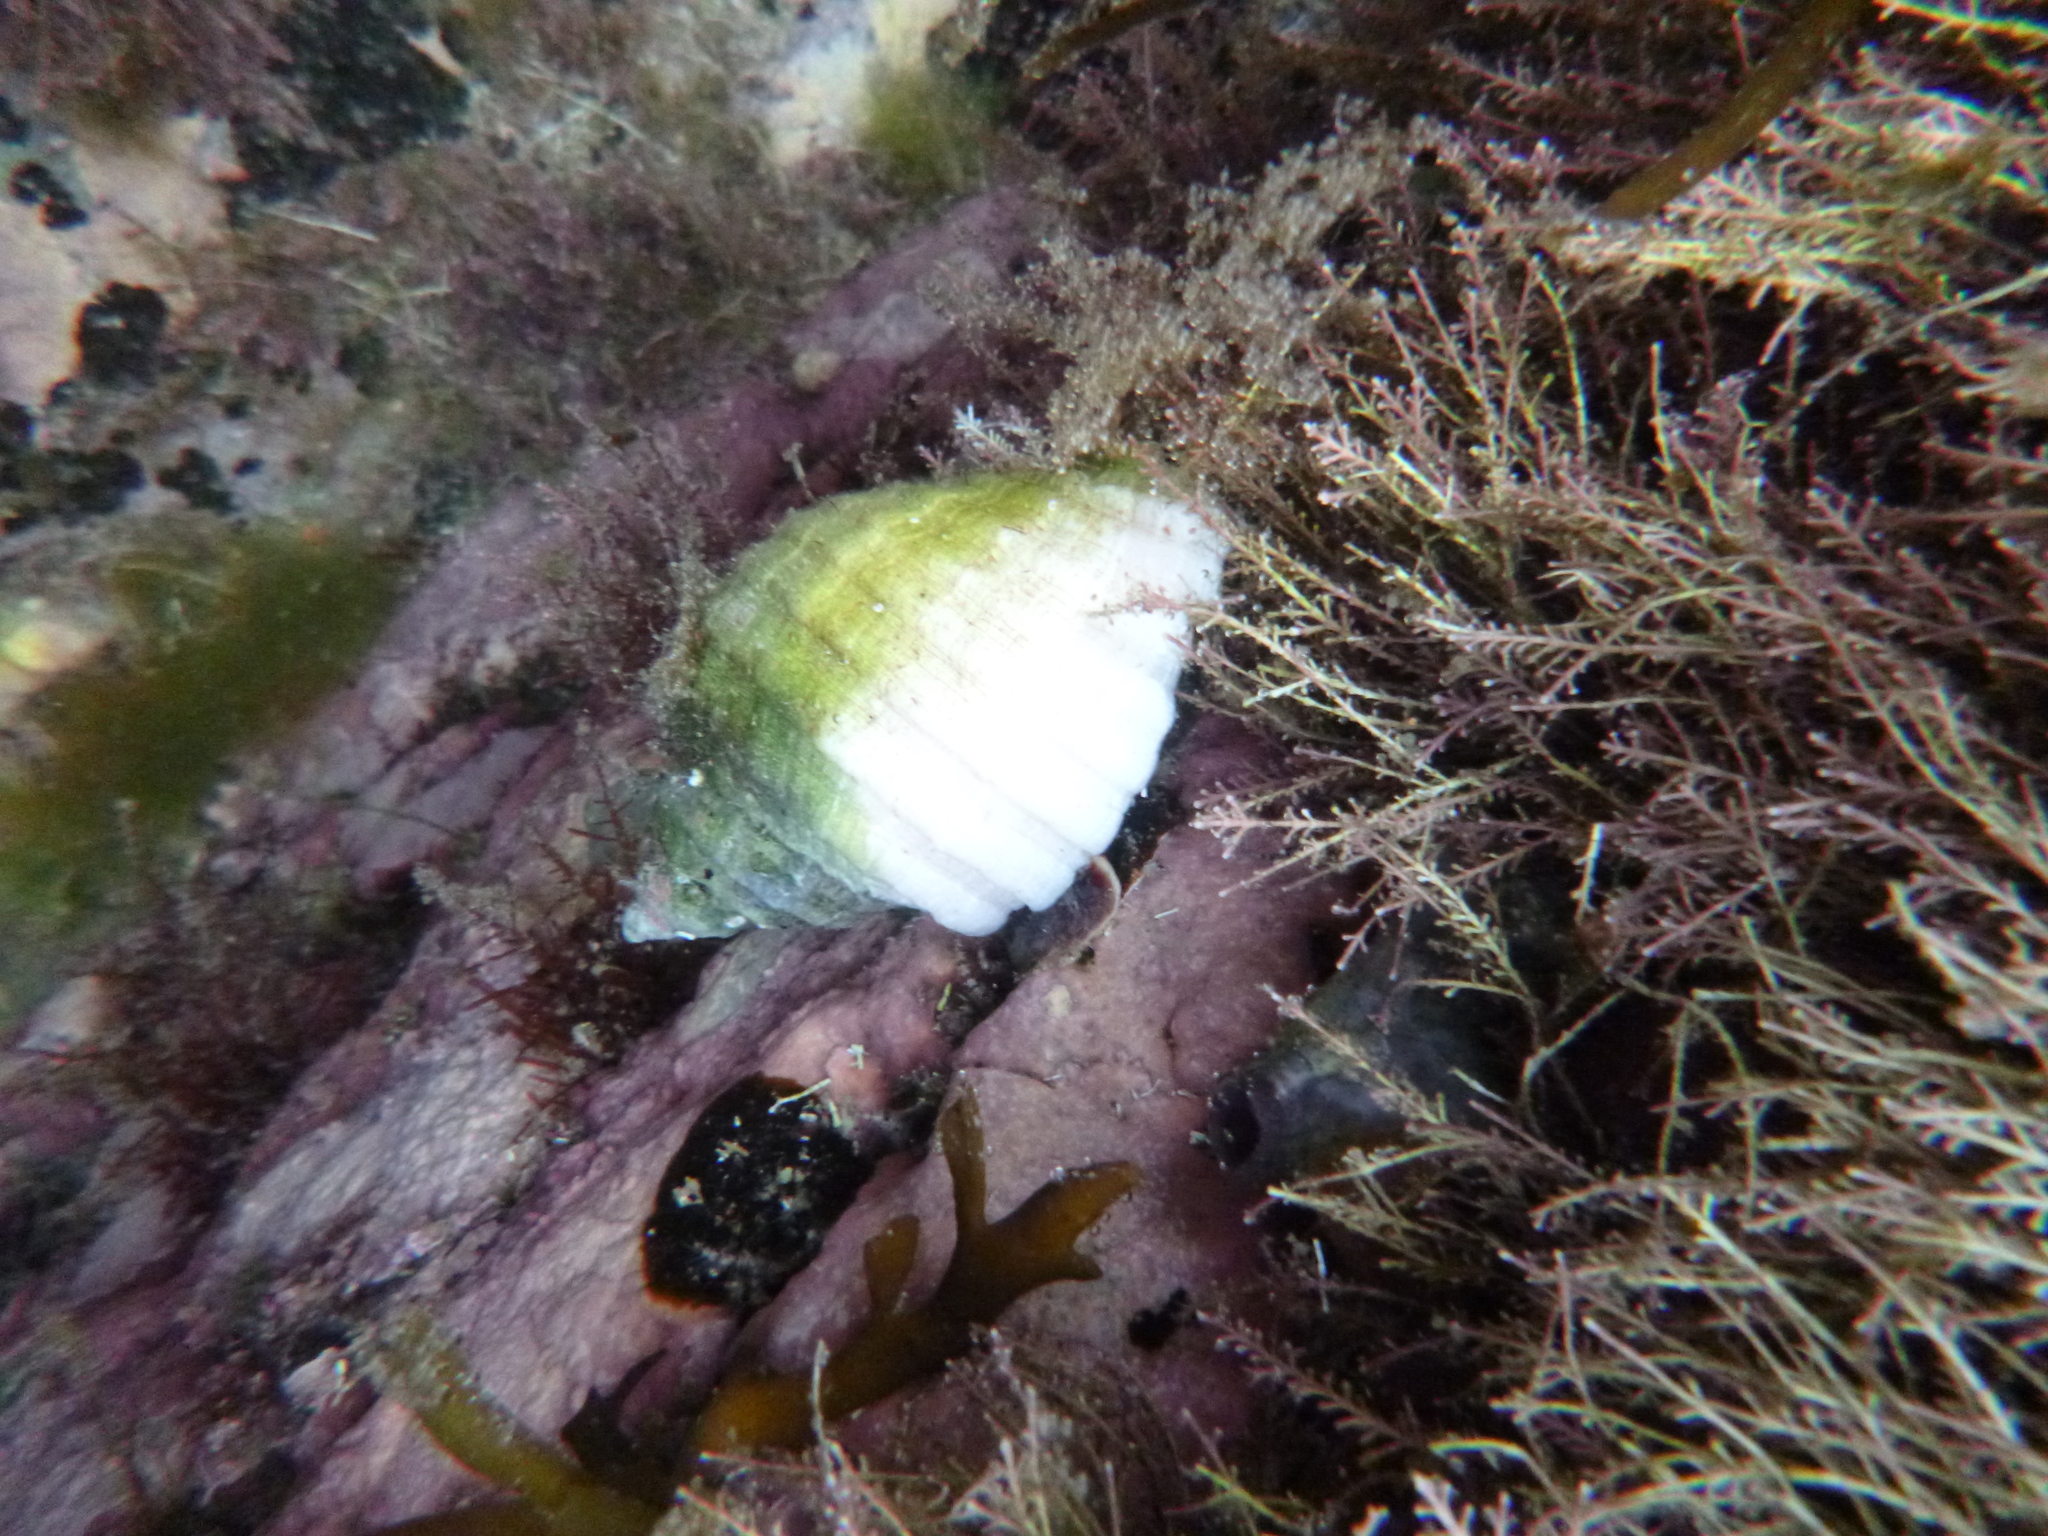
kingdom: Animalia
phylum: Mollusca
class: Gastropoda
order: Neogastropoda
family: Muricidae
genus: Dicathais
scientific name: Dicathais orbita
